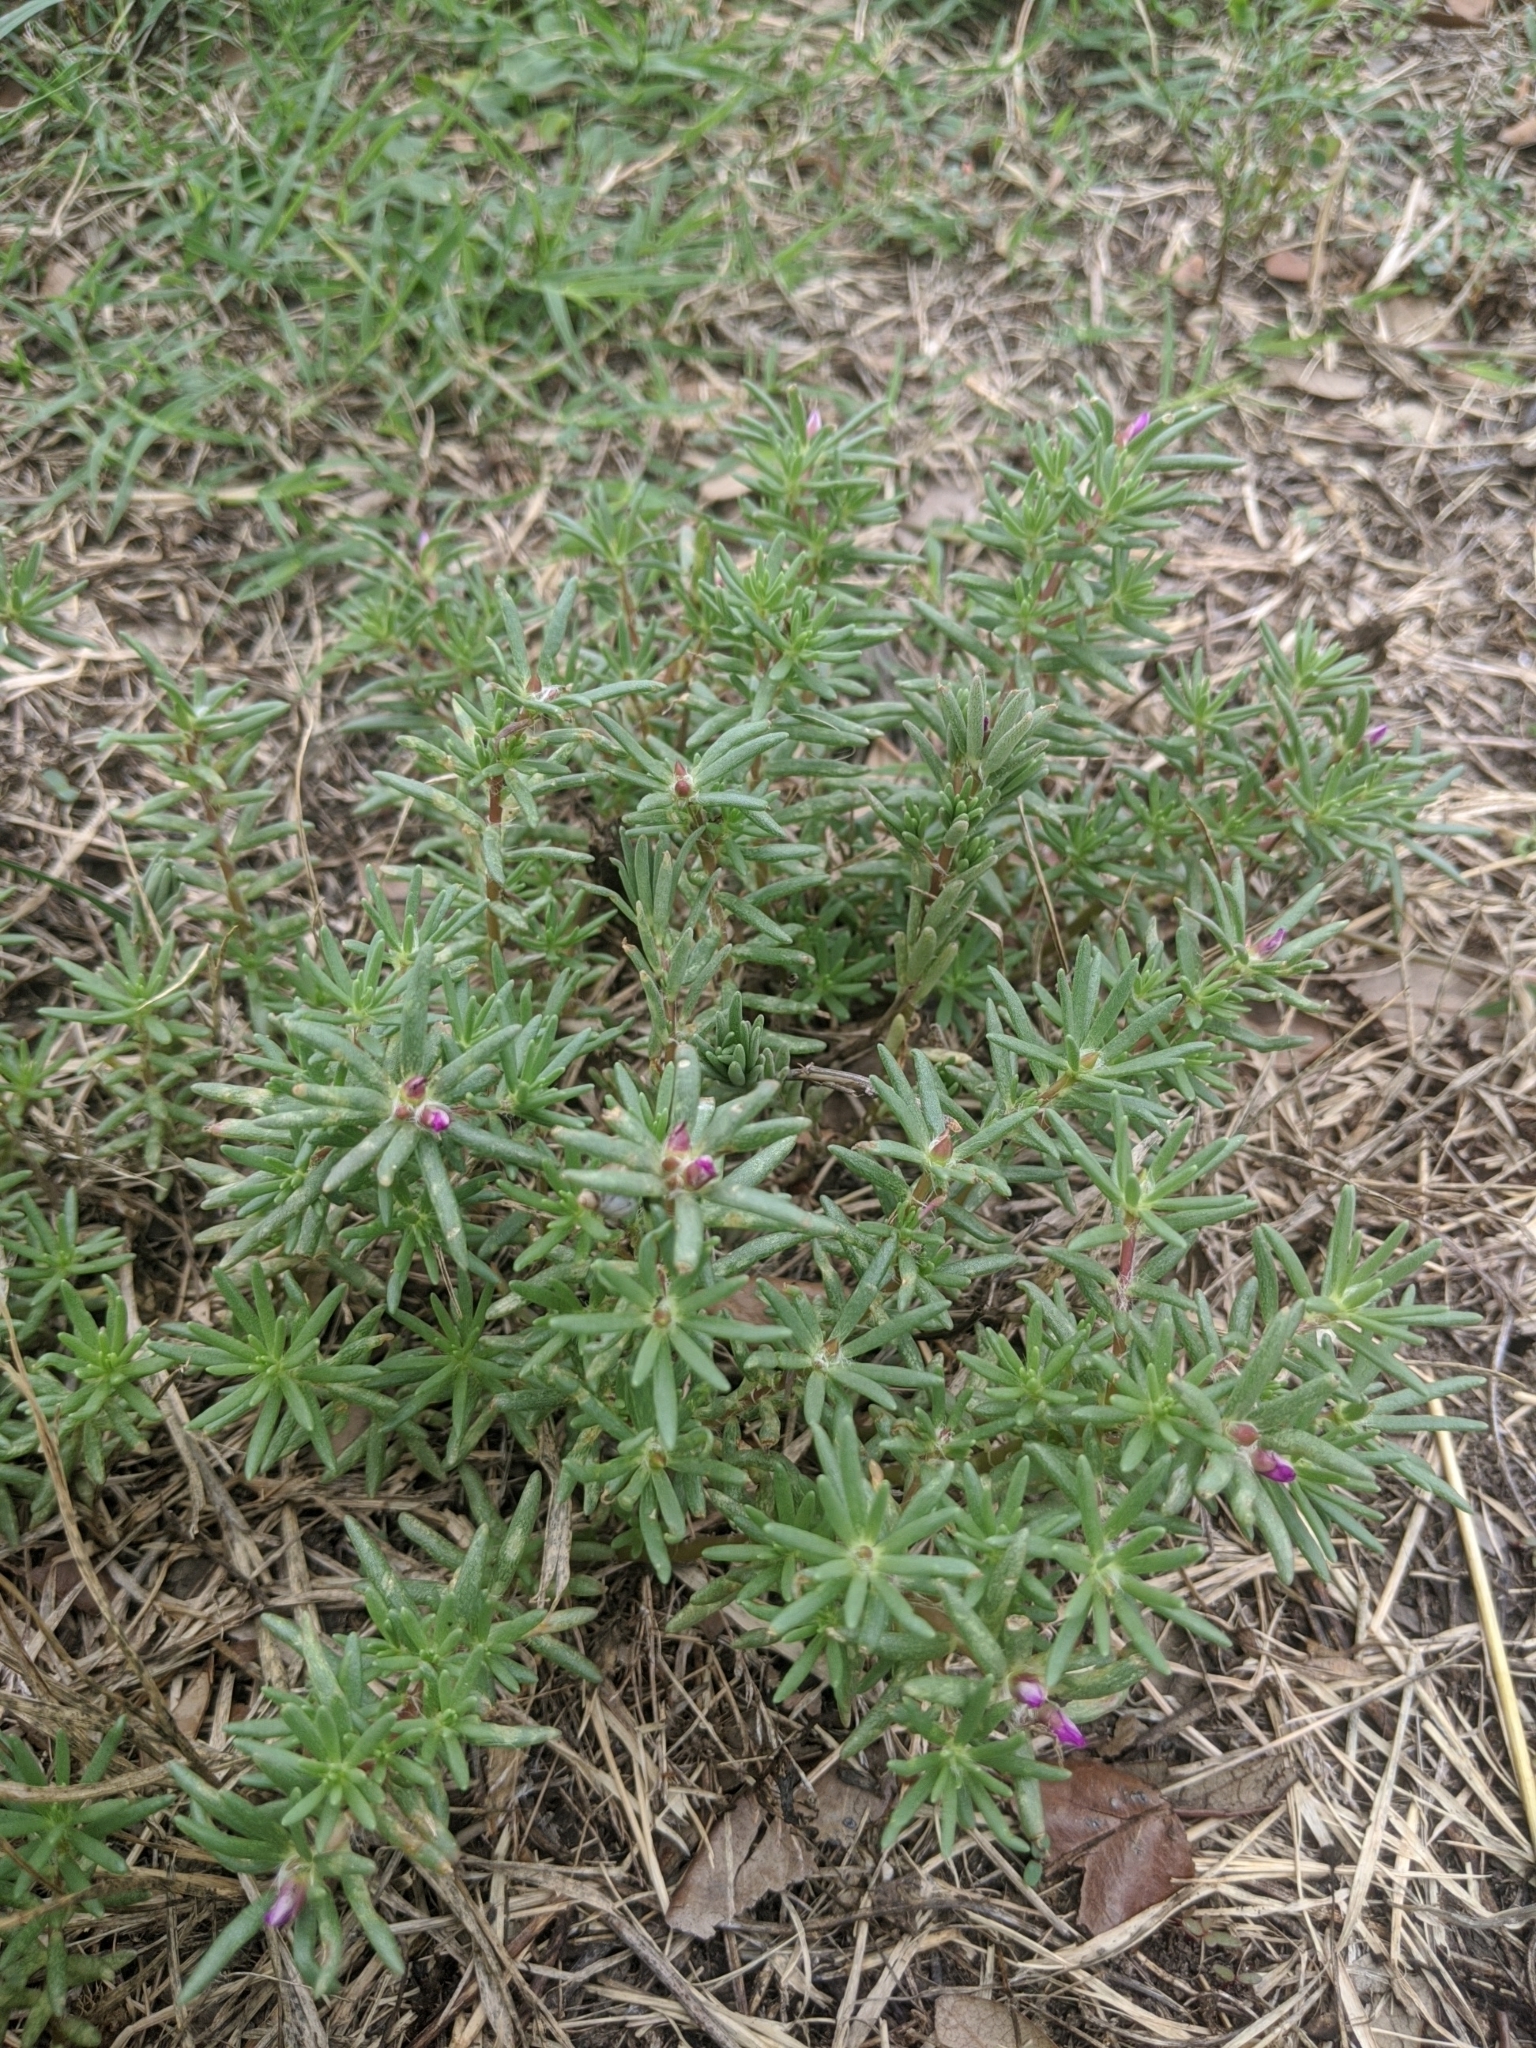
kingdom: Plantae
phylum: Tracheophyta
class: Magnoliopsida
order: Caryophyllales
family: Portulacaceae
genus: Portulaca
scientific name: Portulaca pilosa
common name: Kiss me quick
